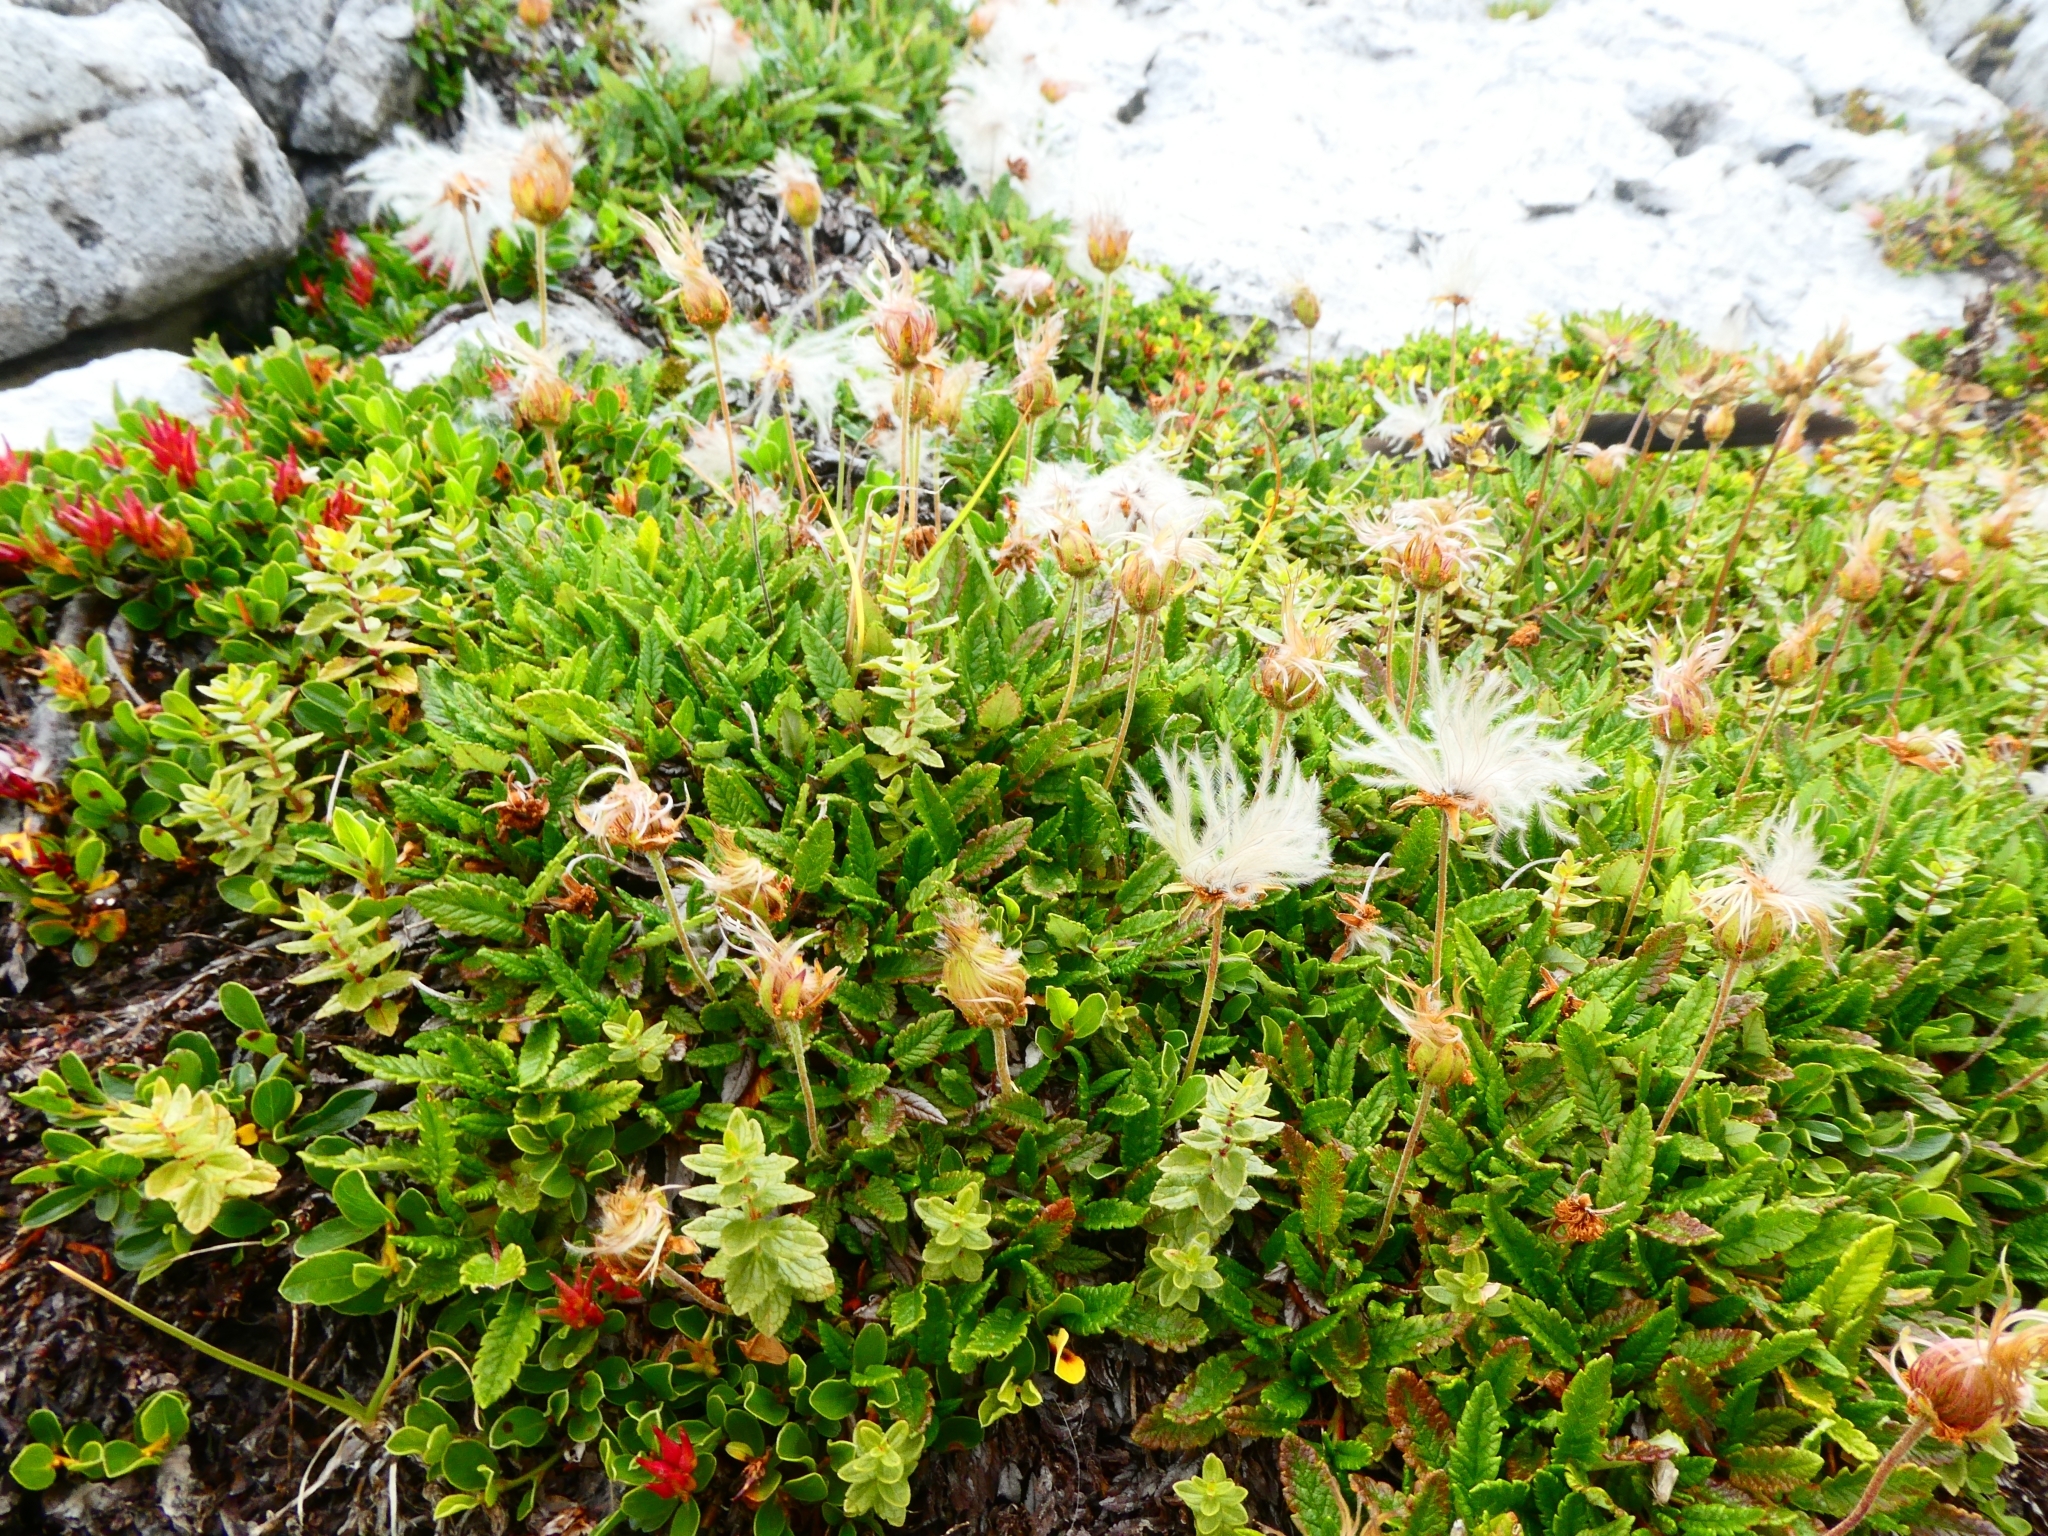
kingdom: Plantae
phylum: Tracheophyta
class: Magnoliopsida
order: Rosales
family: Rosaceae
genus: Dryas
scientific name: Dryas octopetala
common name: Eight-petal mountain-avens
